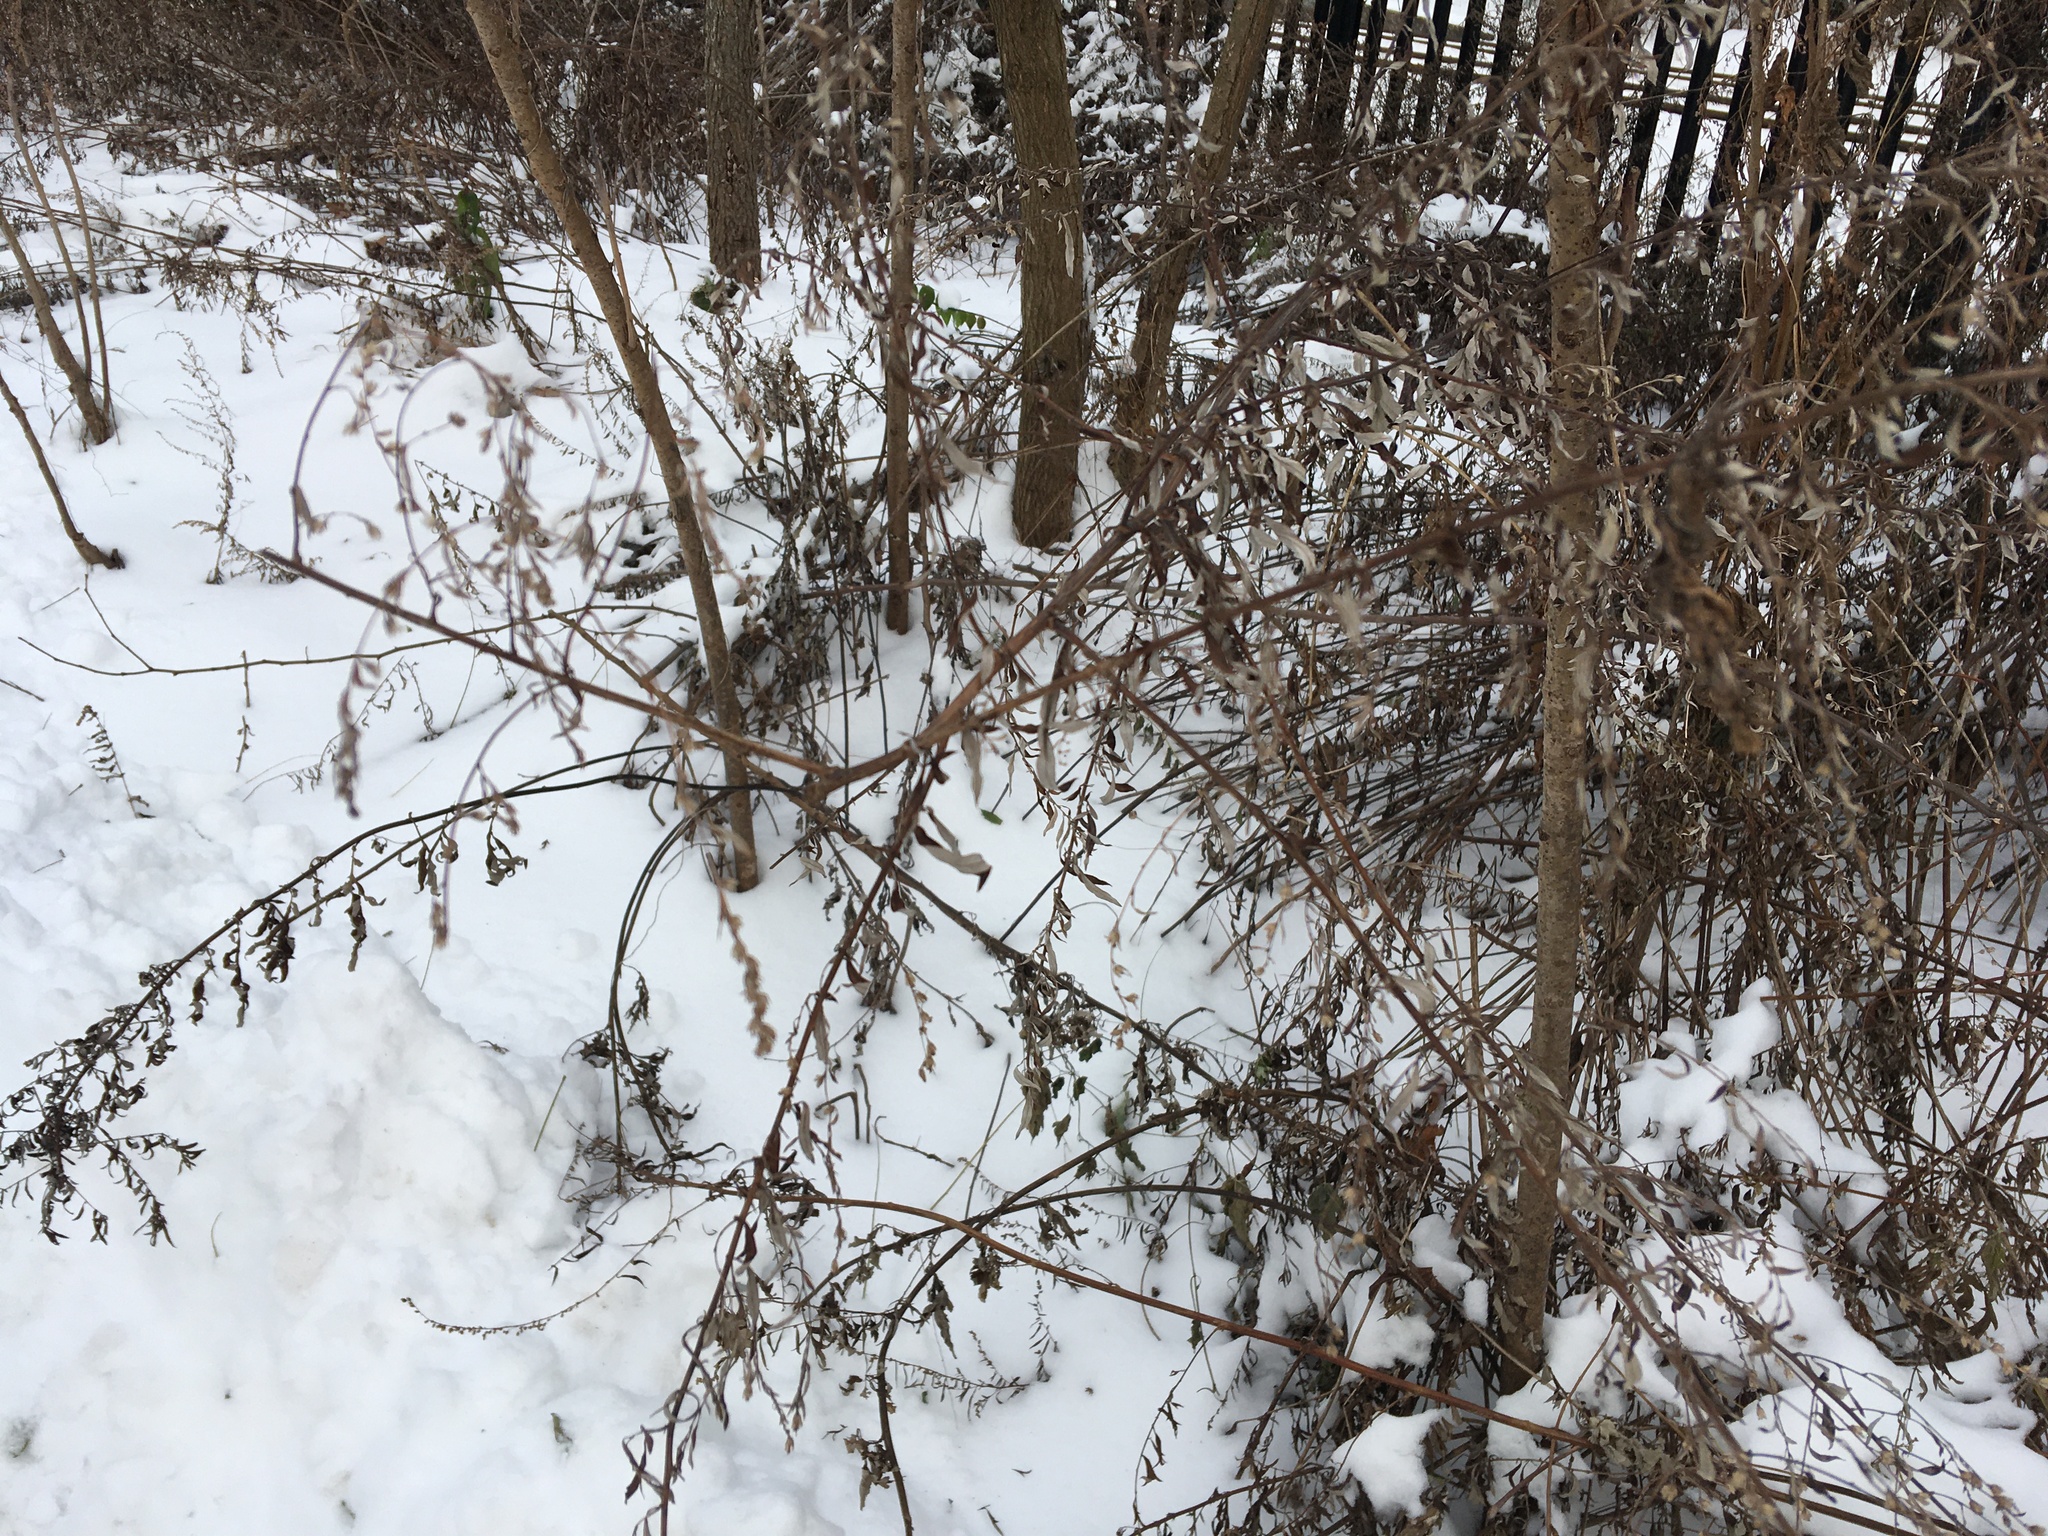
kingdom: Plantae
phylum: Tracheophyta
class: Magnoliopsida
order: Asterales
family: Asteraceae
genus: Artemisia
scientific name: Artemisia vulgaris
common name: Mugwort
